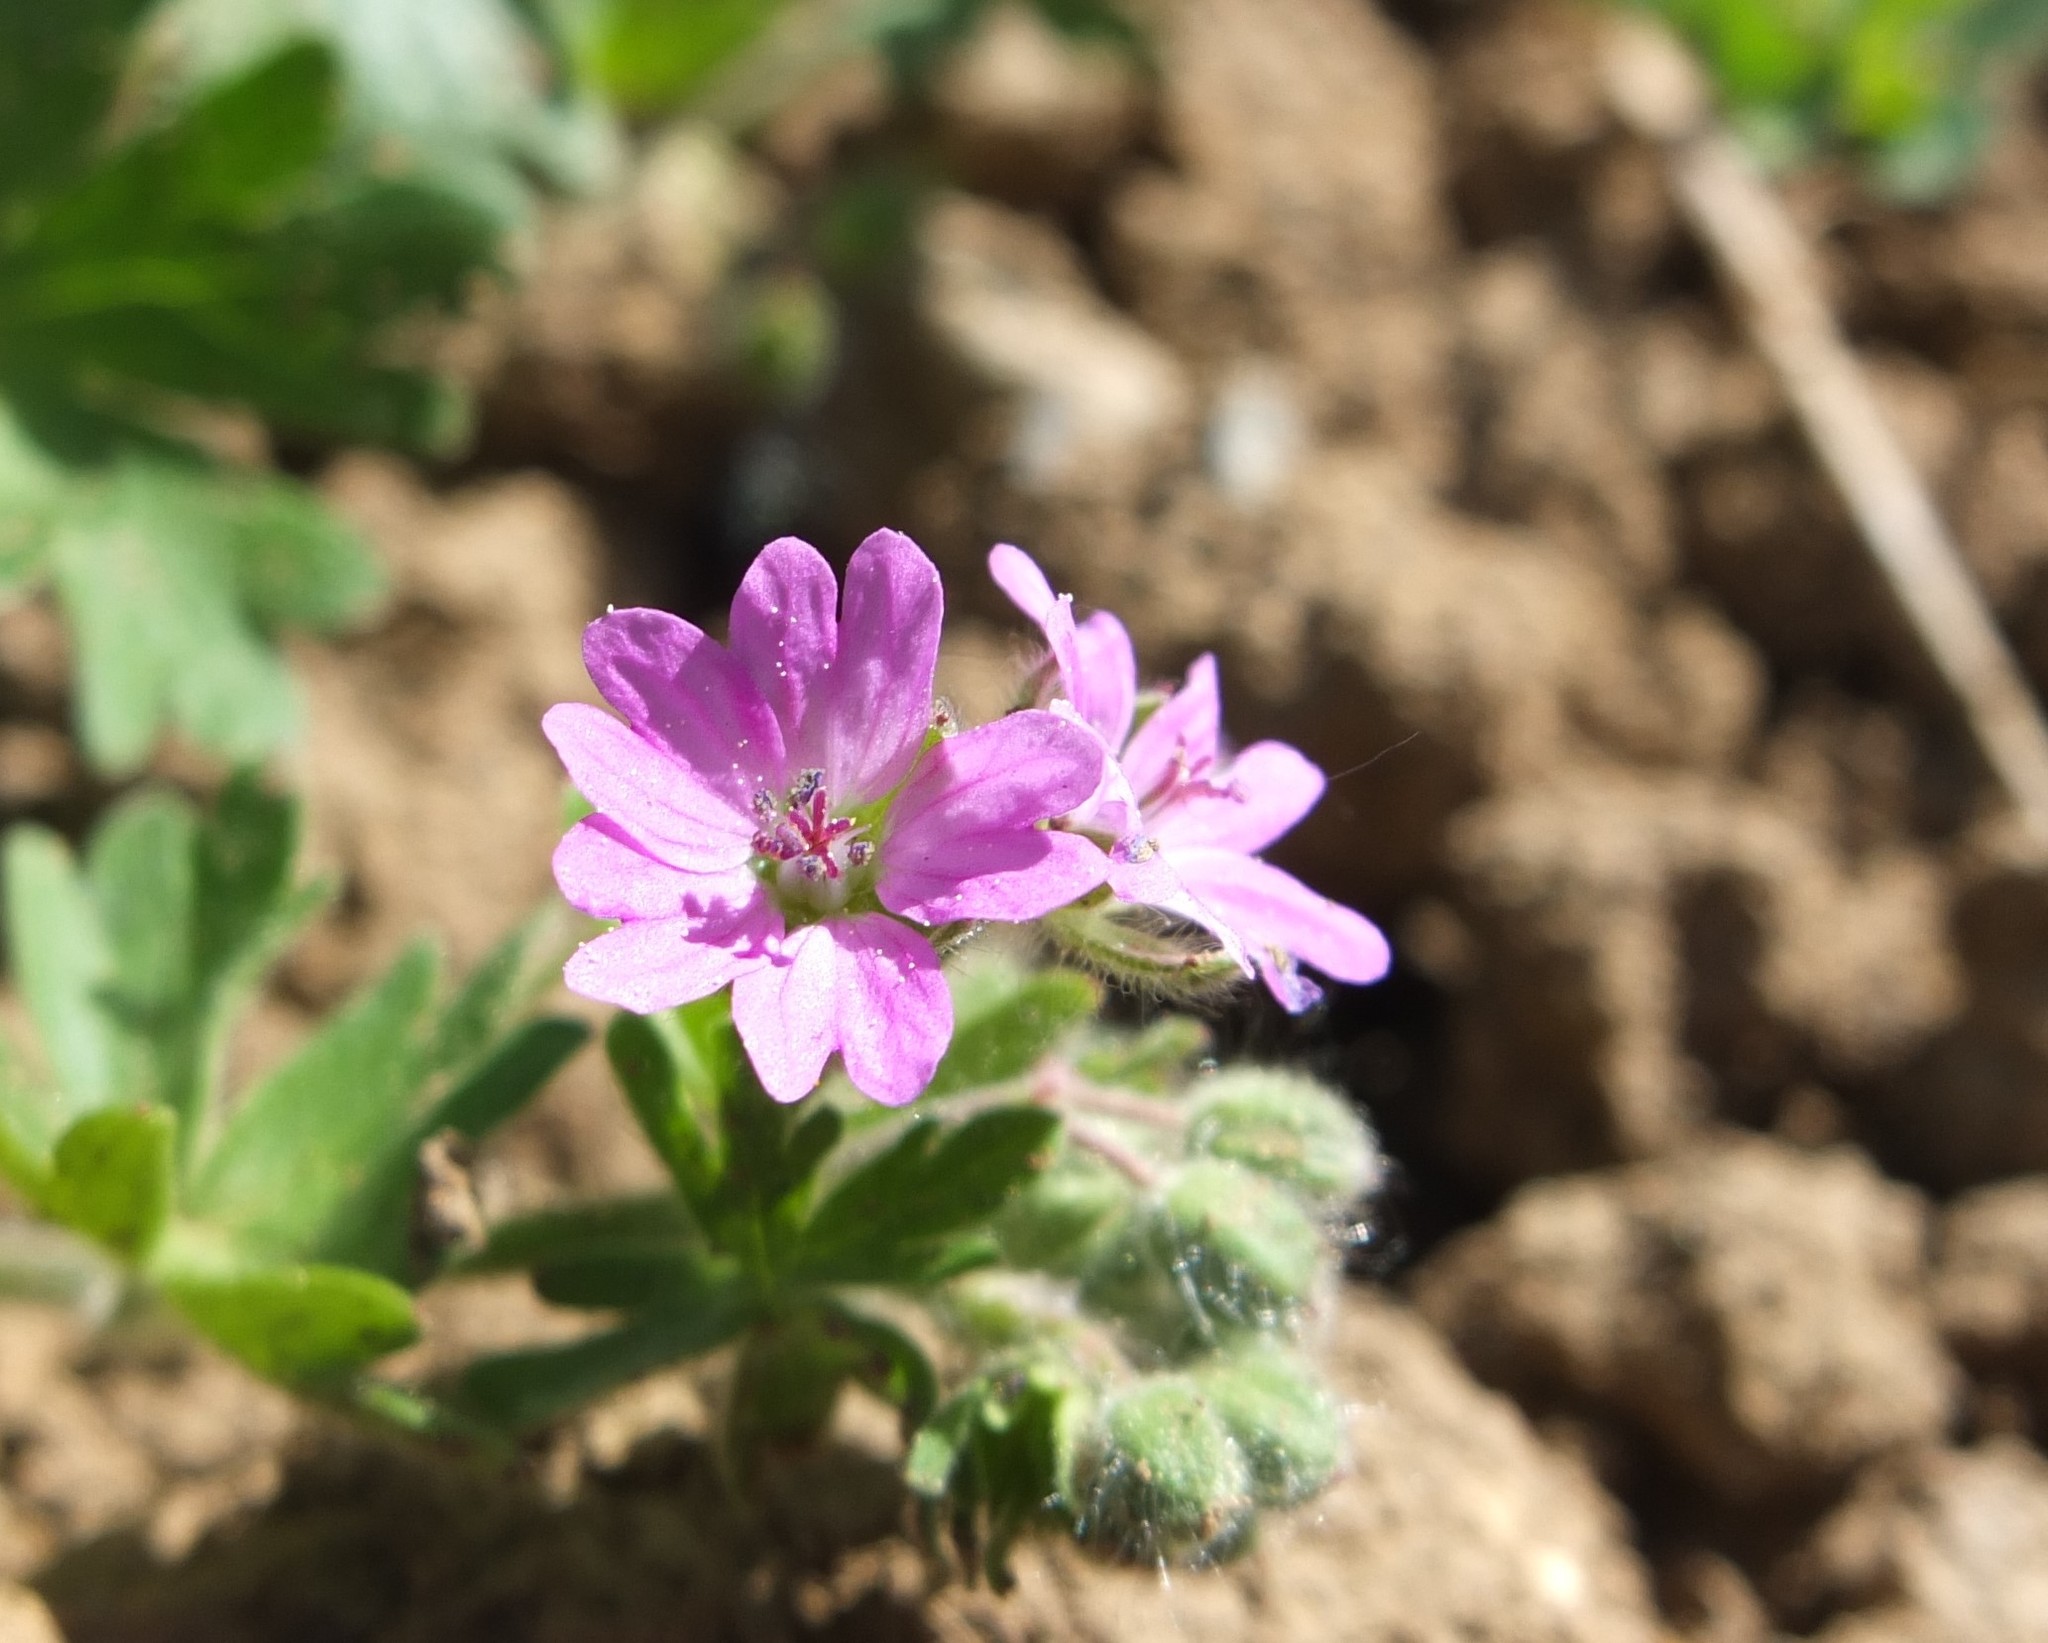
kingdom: Plantae
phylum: Tracheophyta
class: Magnoliopsida
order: Geraniales
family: Geraniaceae
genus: Geranium
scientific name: Geranium molle
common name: Dove's-foot crane's-bill
